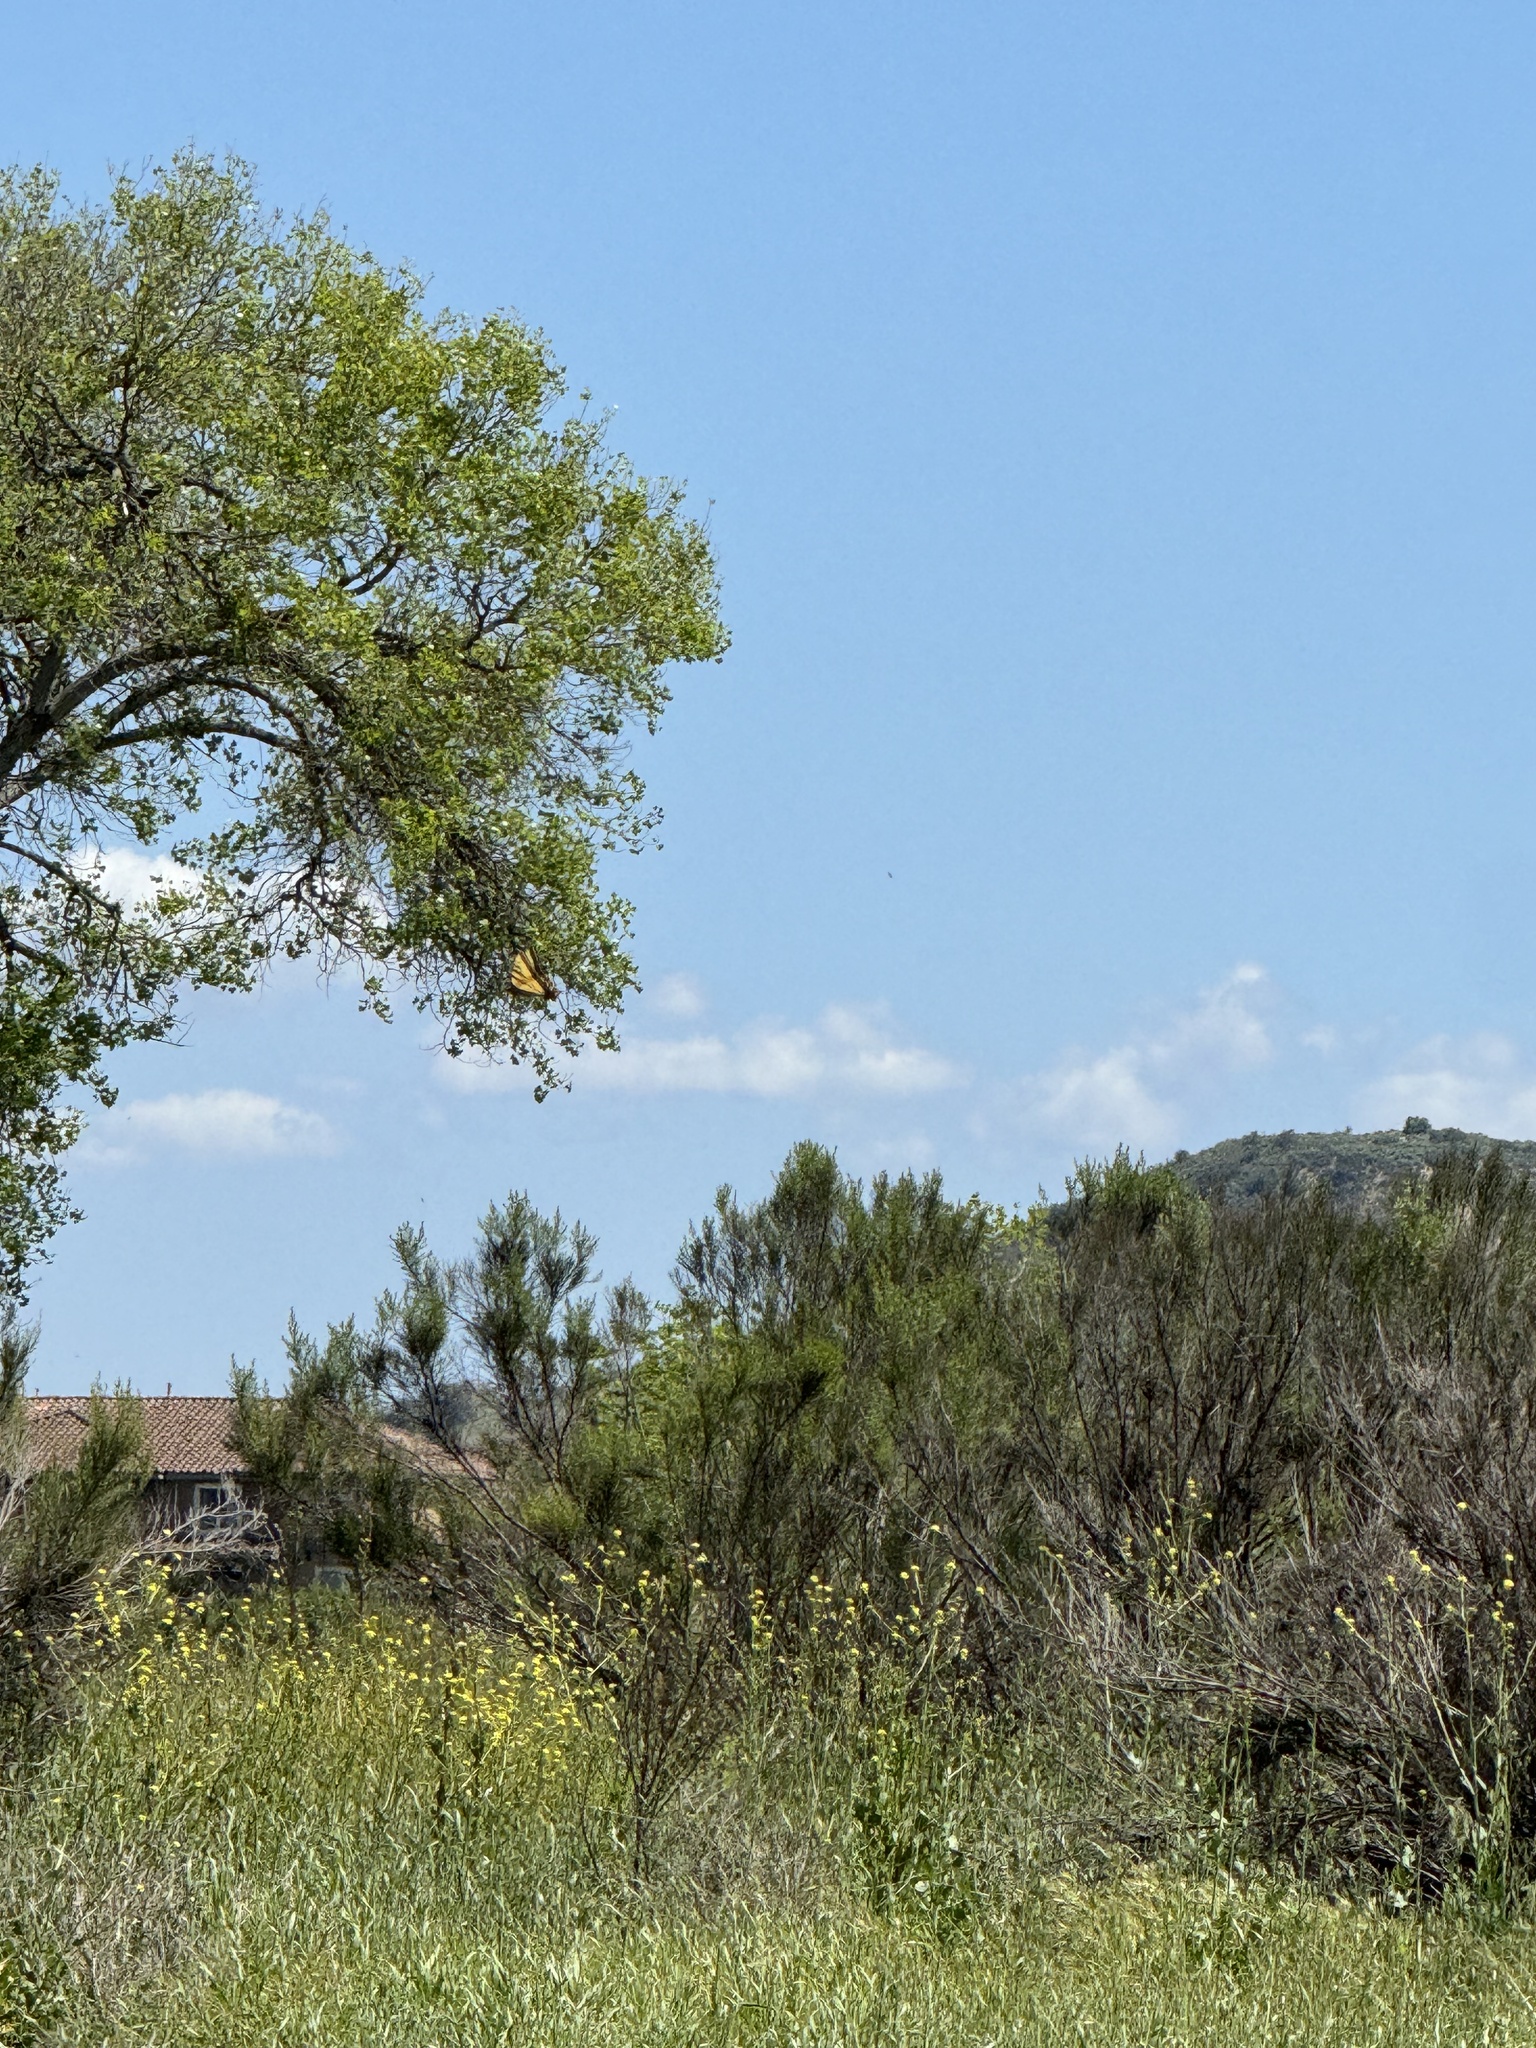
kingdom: Animalia
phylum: Arthropoda
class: Insecta
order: Lepidoptera
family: Papilionidae
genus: Papilio
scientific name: Papilio rutulus
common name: Western tiger swallowtail
